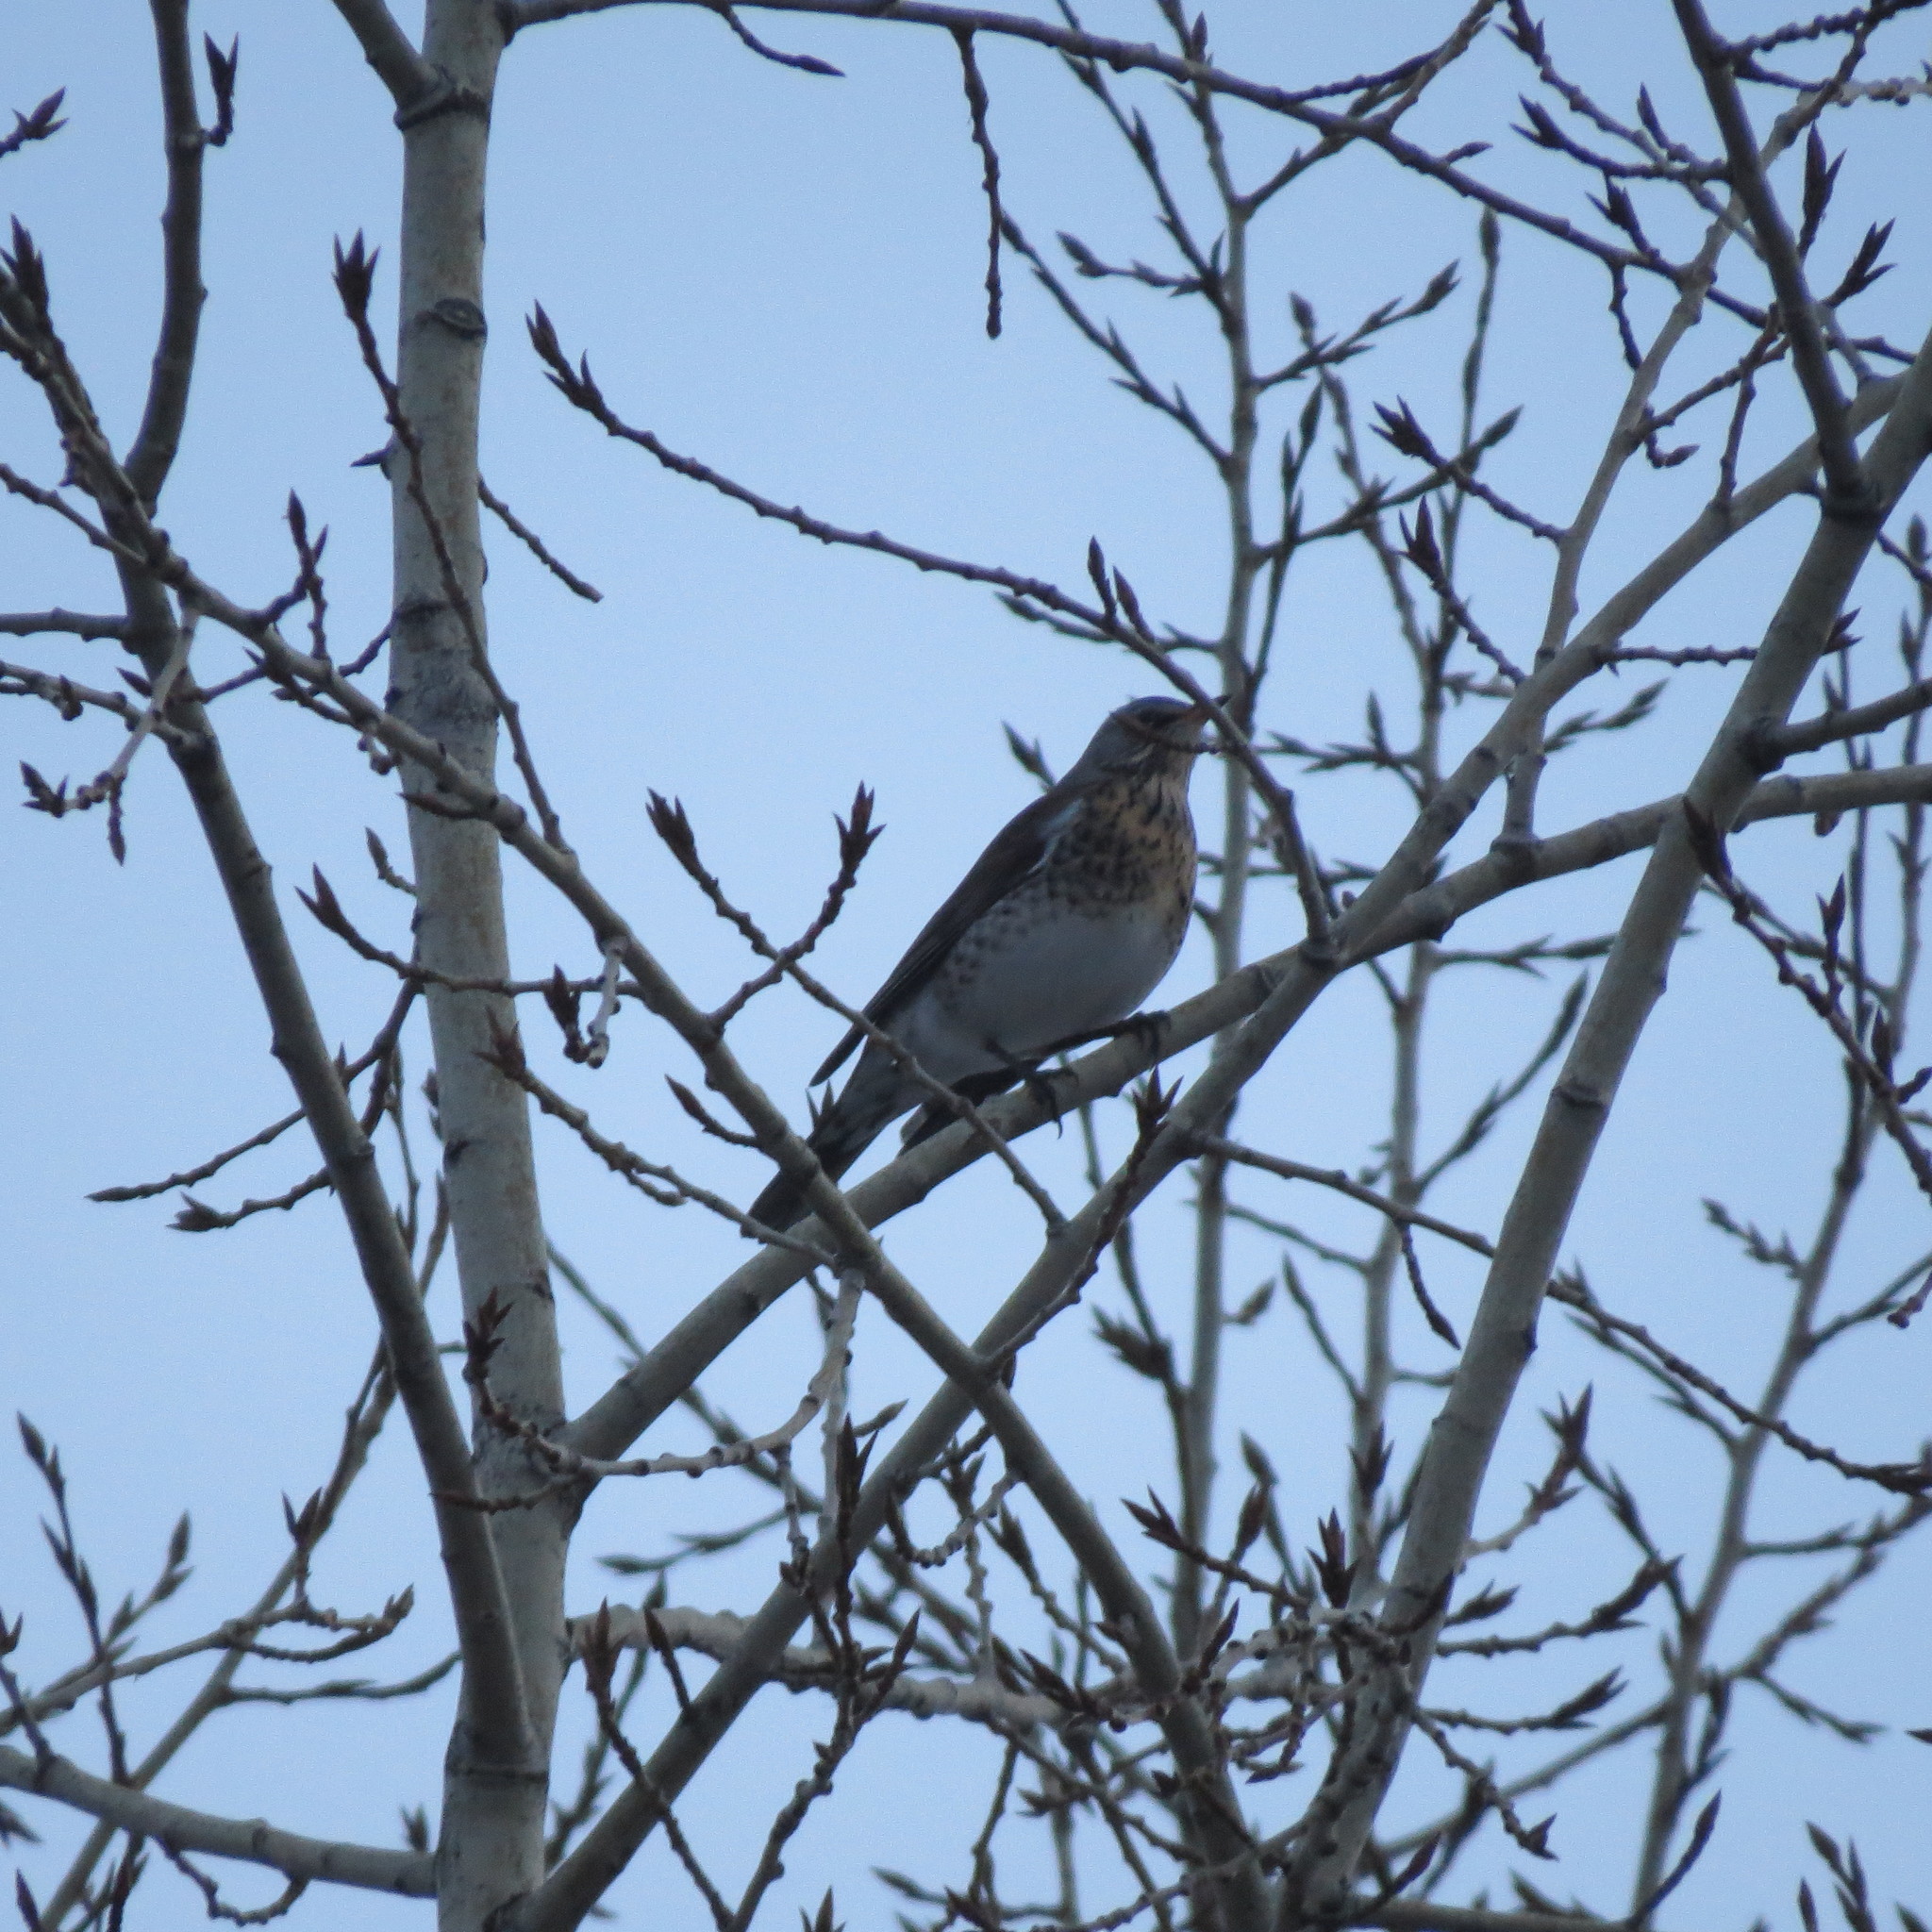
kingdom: Animalia
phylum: Chordata
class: Aves
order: Passeriformes
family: Turdidae
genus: Turdus
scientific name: Turdus pilaris
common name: Fieldfare
